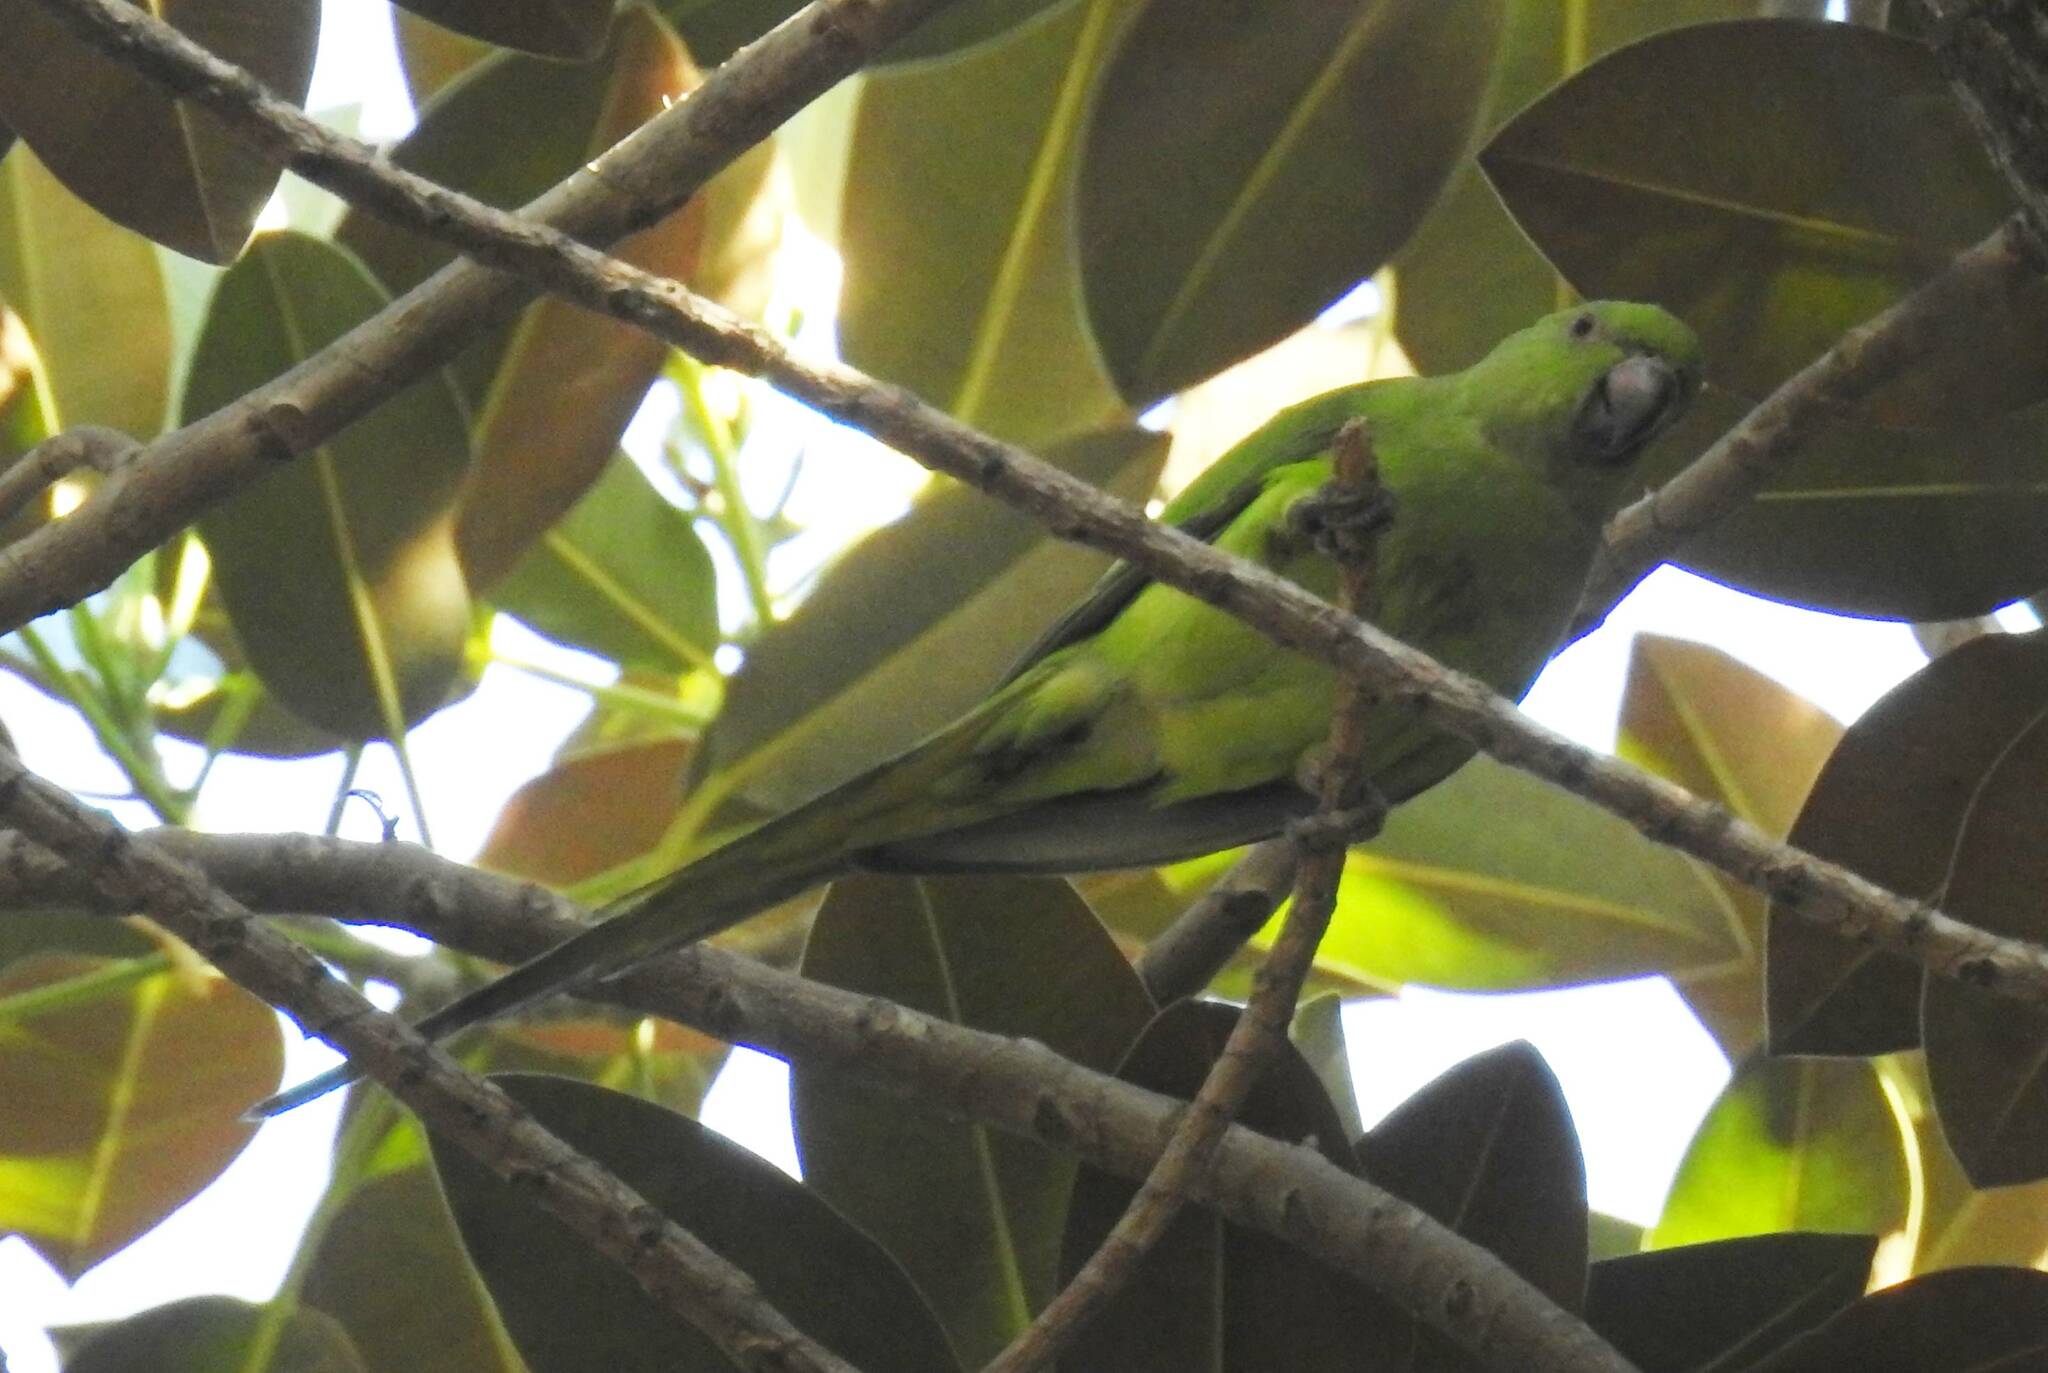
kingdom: Animalia
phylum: Chordata
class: Aves
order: Psittaciformes
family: Psittacidae
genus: Psittacula
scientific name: Psittacula krameri
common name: Rose-ringed parakeet
